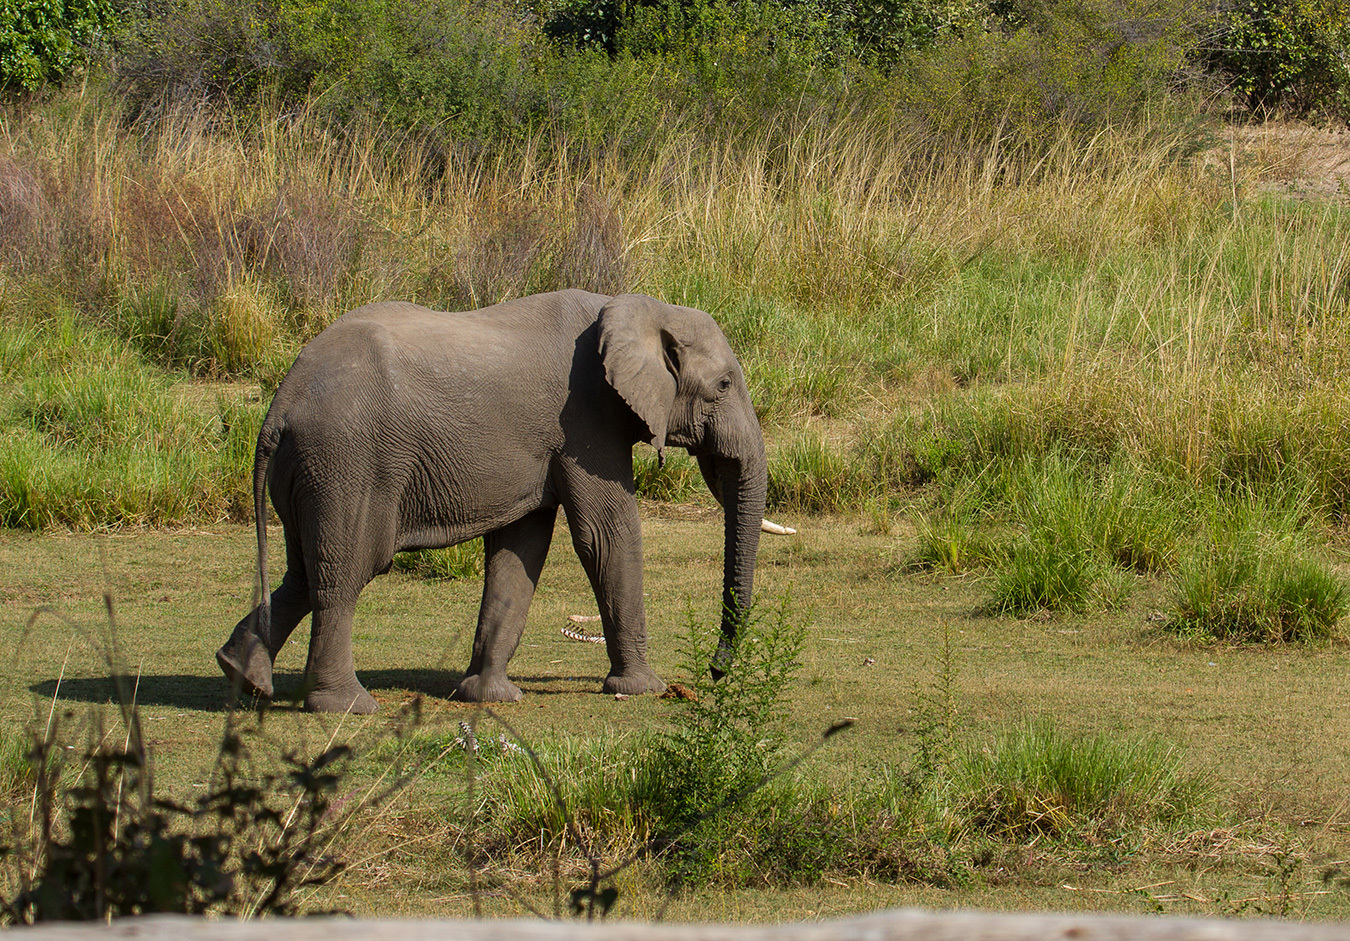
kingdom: Animalia
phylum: Chordata
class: Mammalia
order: Proboscidea
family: Elephantidae
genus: Loxodonta
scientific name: Loxodonta africana
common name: African elephant
